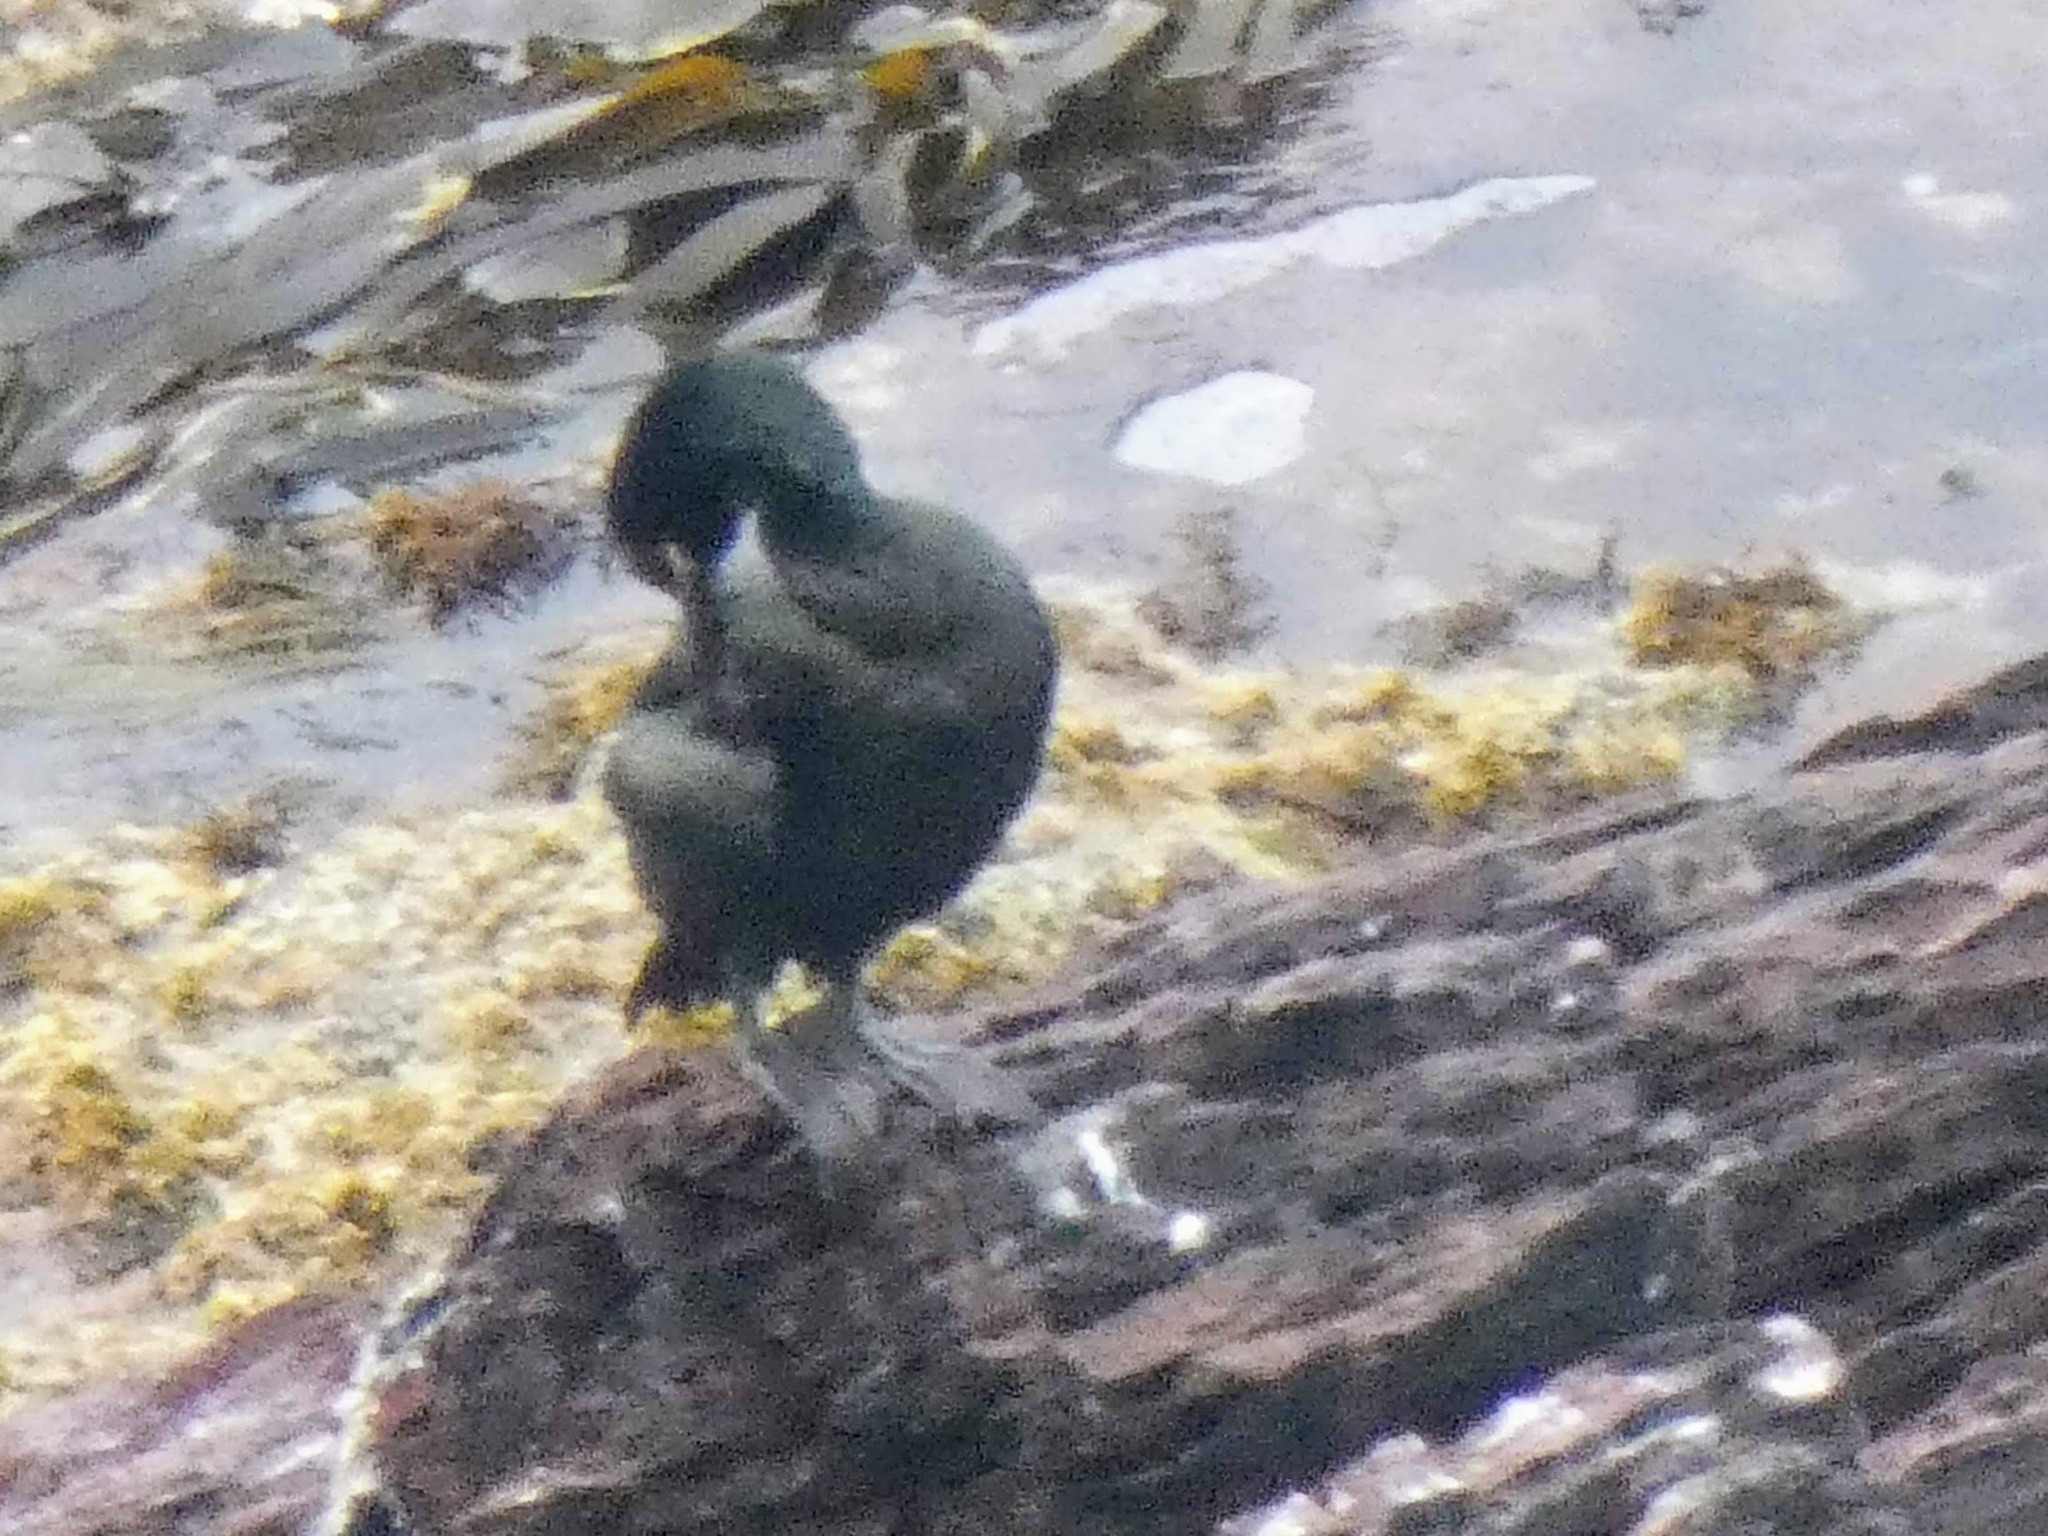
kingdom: Animalia
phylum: Chordata
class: Aves
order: Suliformes
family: Phalacrocoracidae
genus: Phalacrocorax
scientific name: Phalacrocorax aristotelis
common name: European shag
